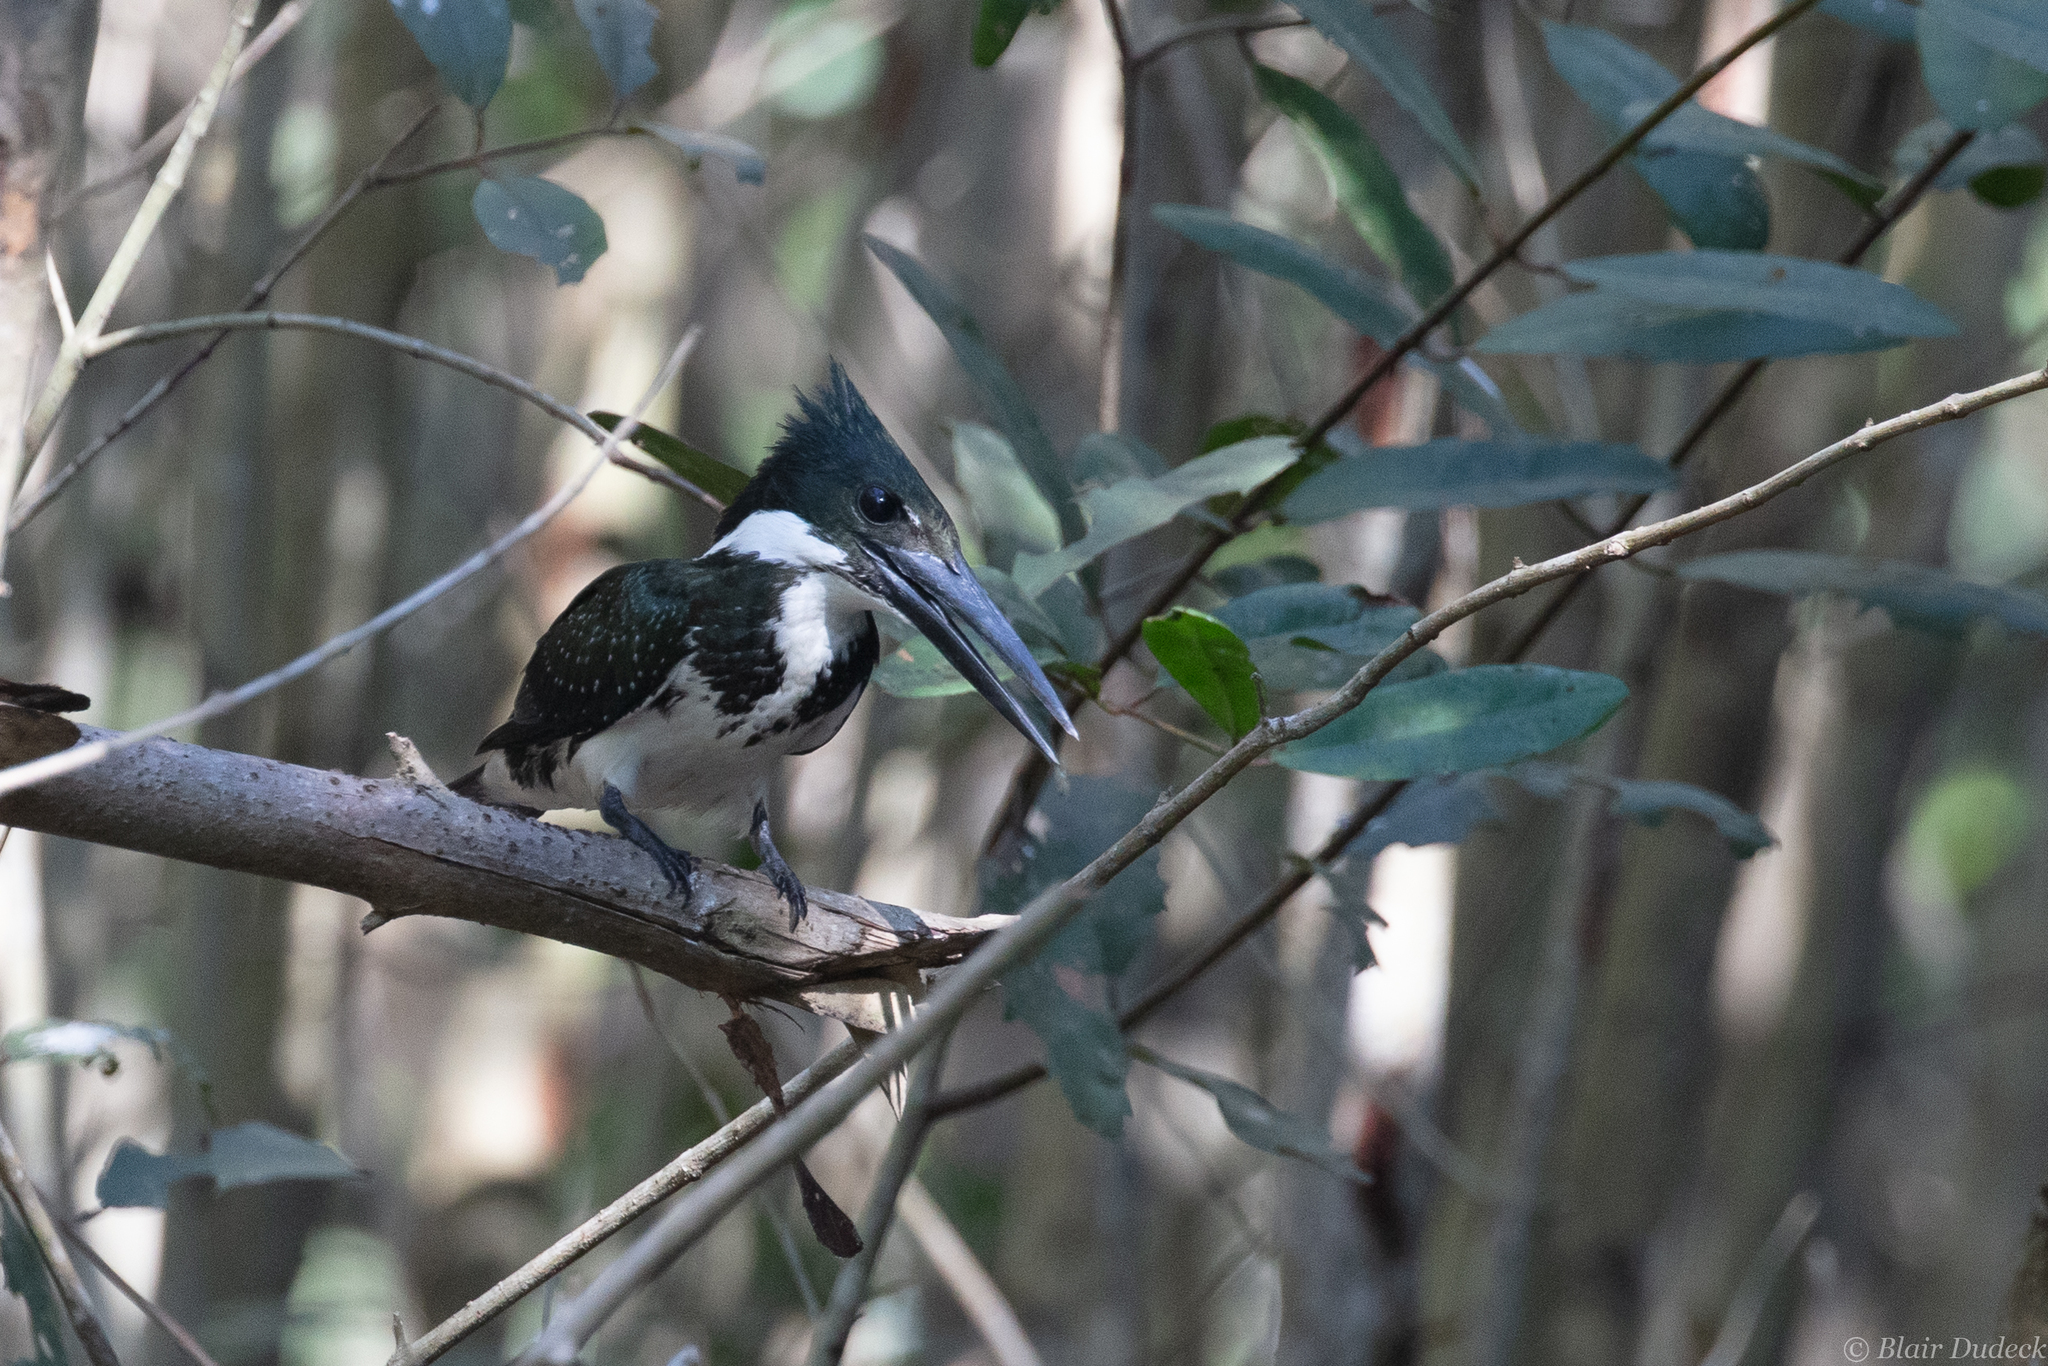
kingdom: Animalia
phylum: Chordata
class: Aves
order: Coraciiformes
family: Alcedinidae
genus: Chloroceryle
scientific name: Chloroceryle amazona
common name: Amazon kingfisher
